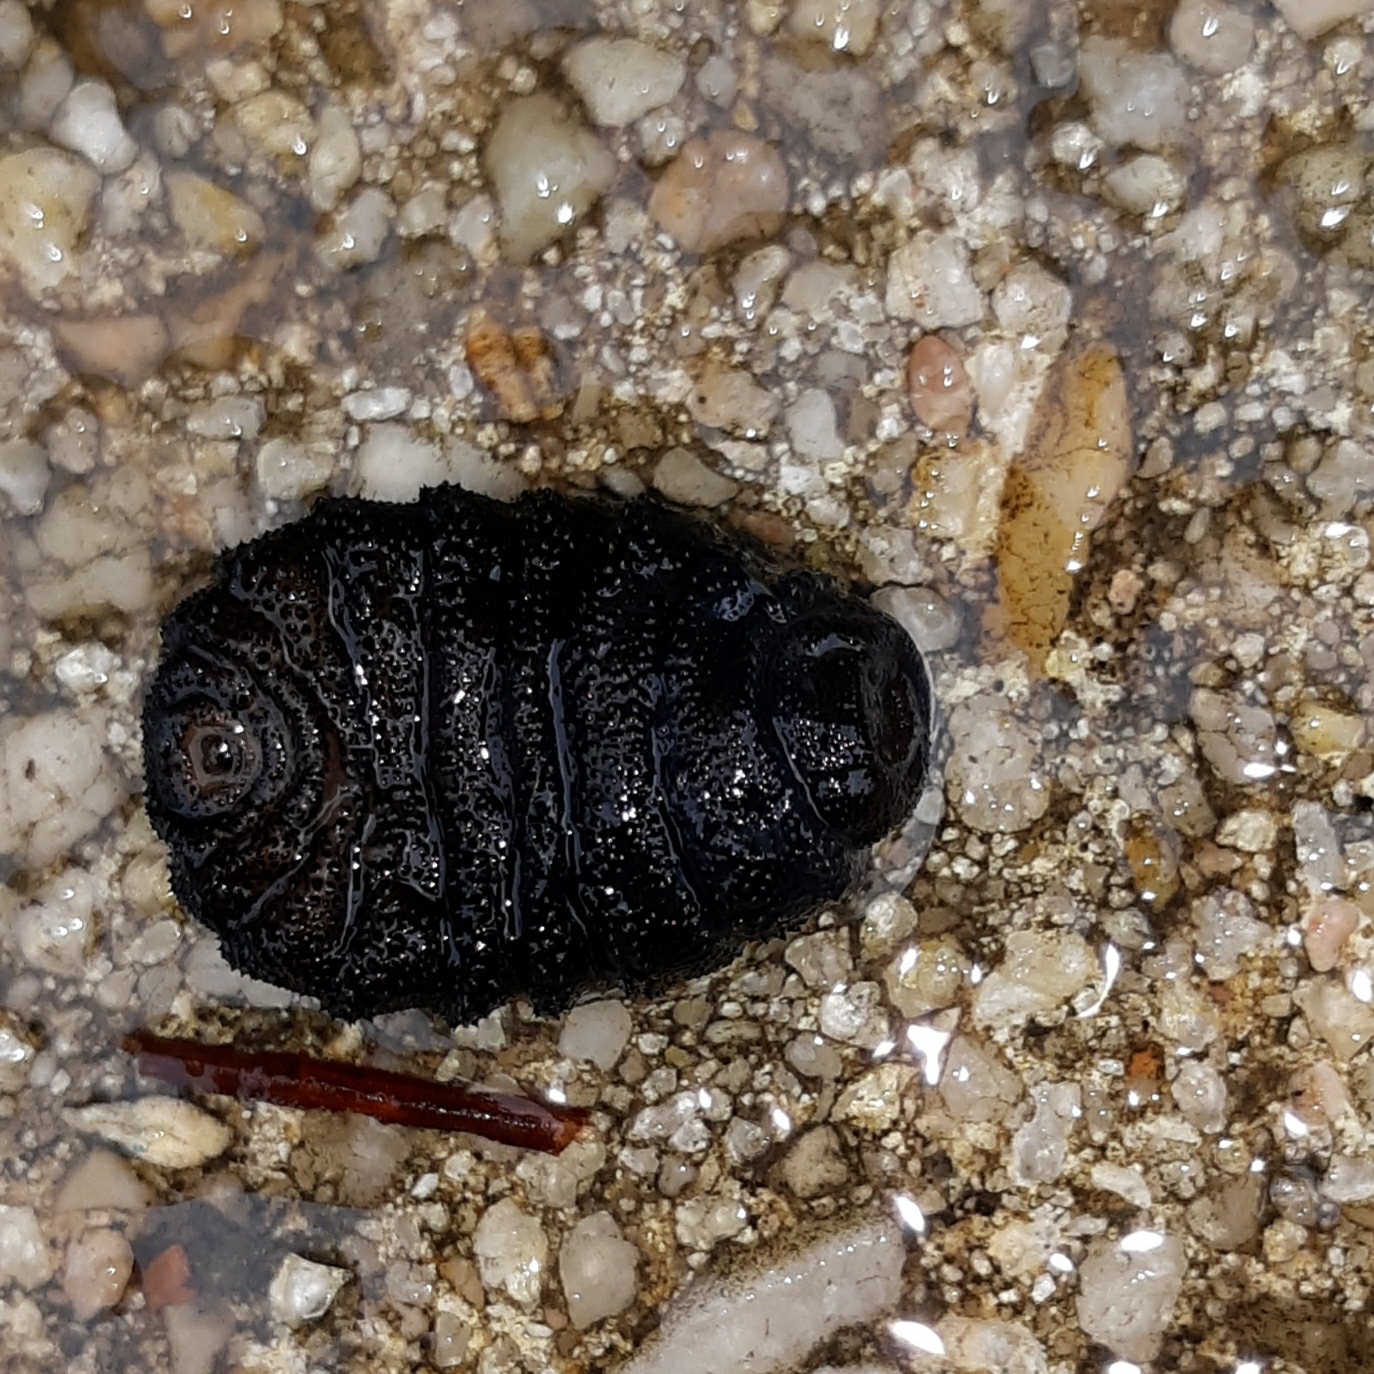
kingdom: Animalia
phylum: Arthropoda
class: Insecta
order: Diptera
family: Oestridae
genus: Cuterebra
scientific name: Cuterebra
